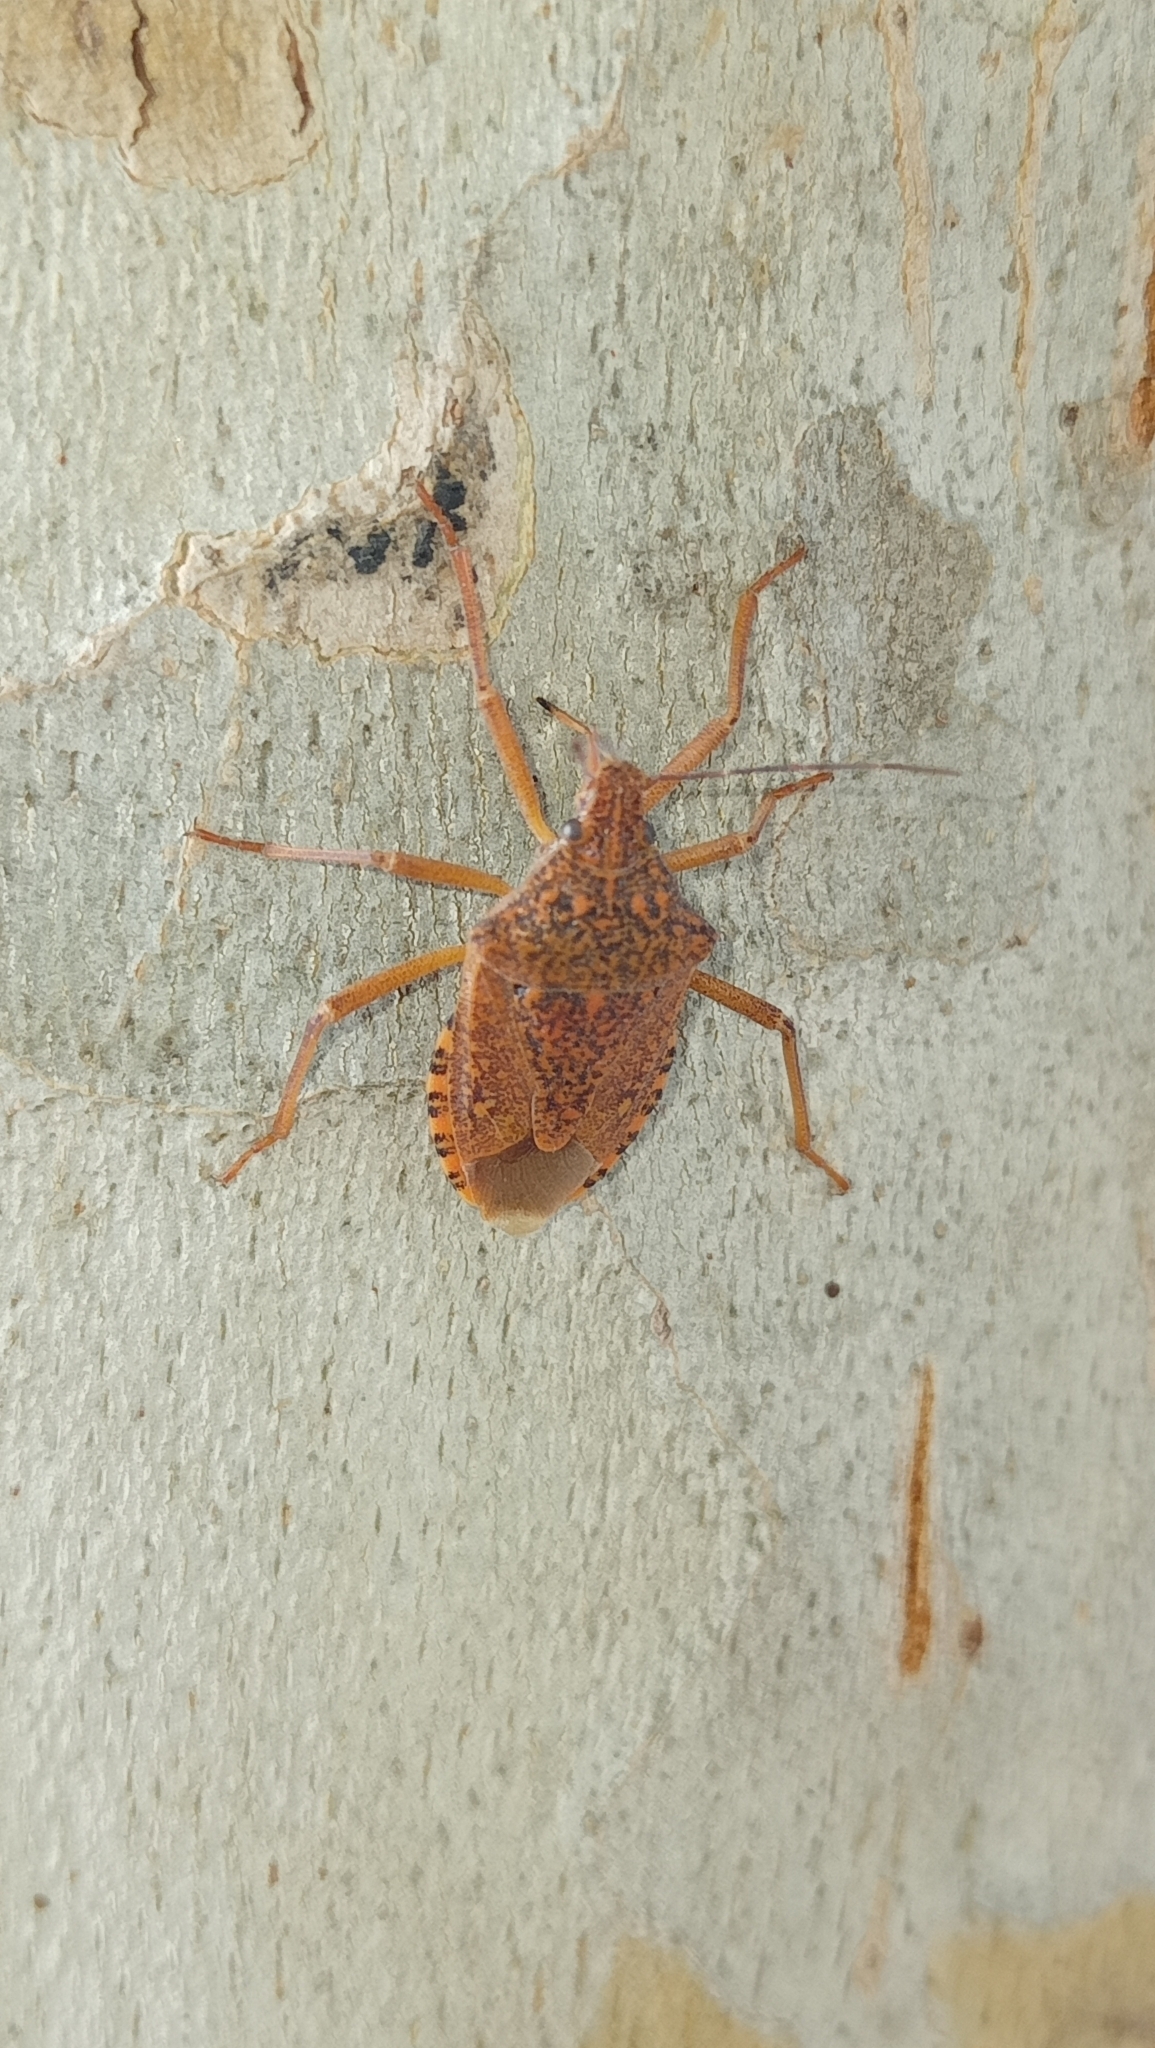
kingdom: Animalia
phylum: Arthropoda
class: Insecta
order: Hemiptera
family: Pentatomidae
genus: Apodiphus
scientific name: Apodiphus
